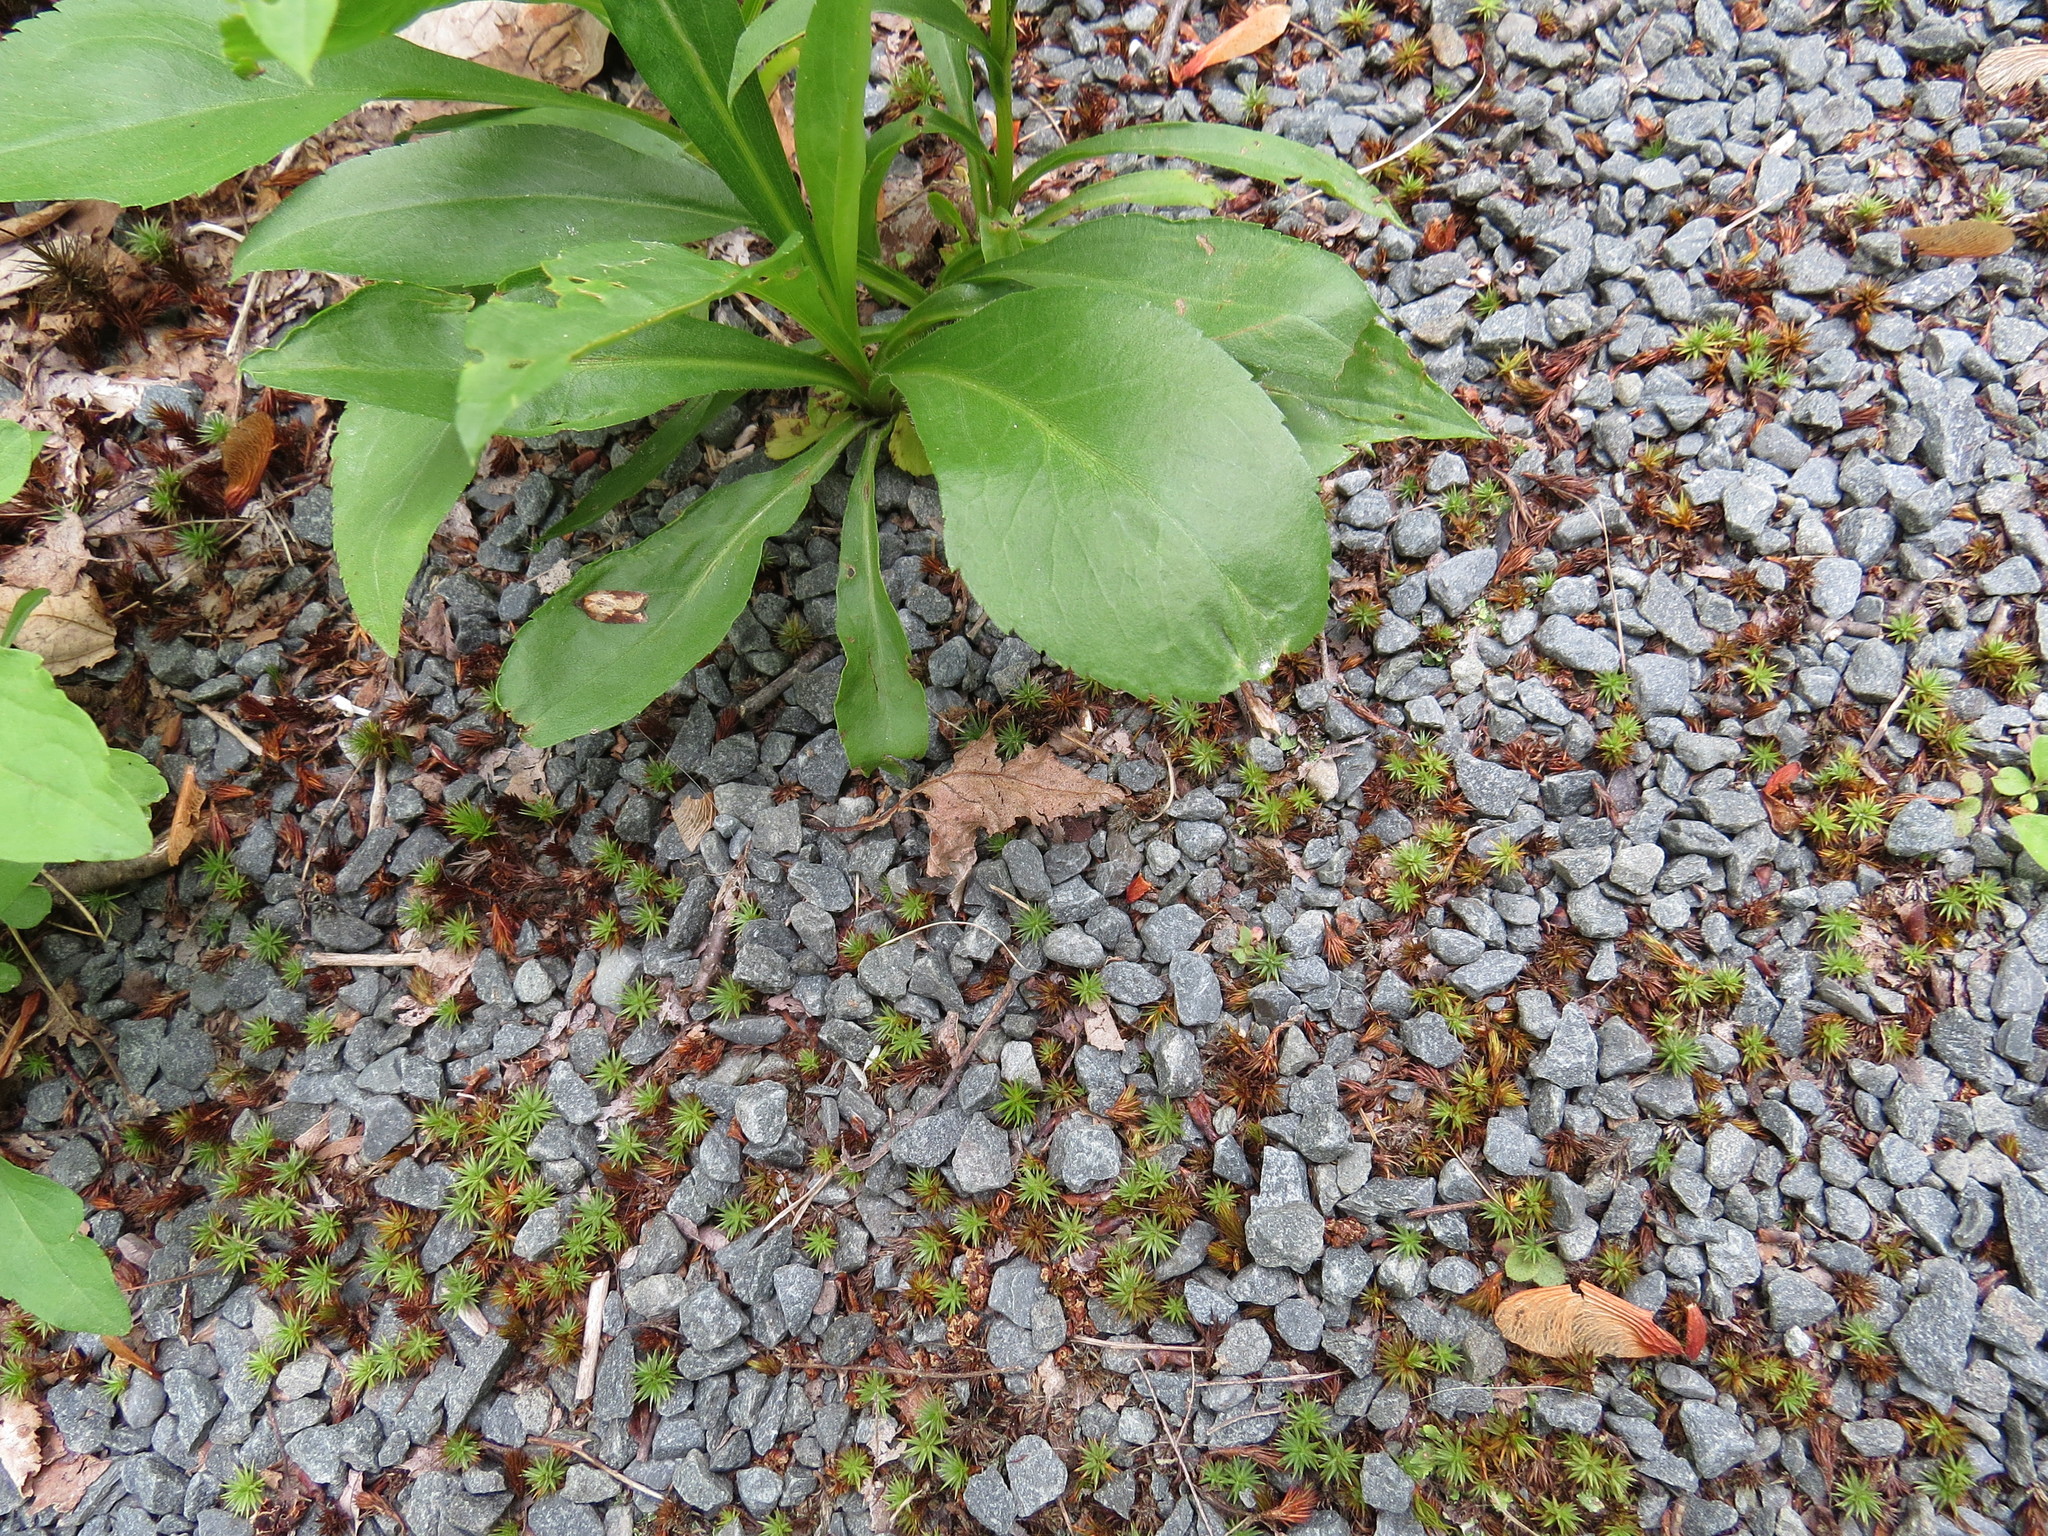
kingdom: Plantae
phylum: Tracheophyta
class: Magnoliopsida
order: Asterales
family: Asteraceae
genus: Solidago
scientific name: Solidago juncea
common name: Early goldenrod
